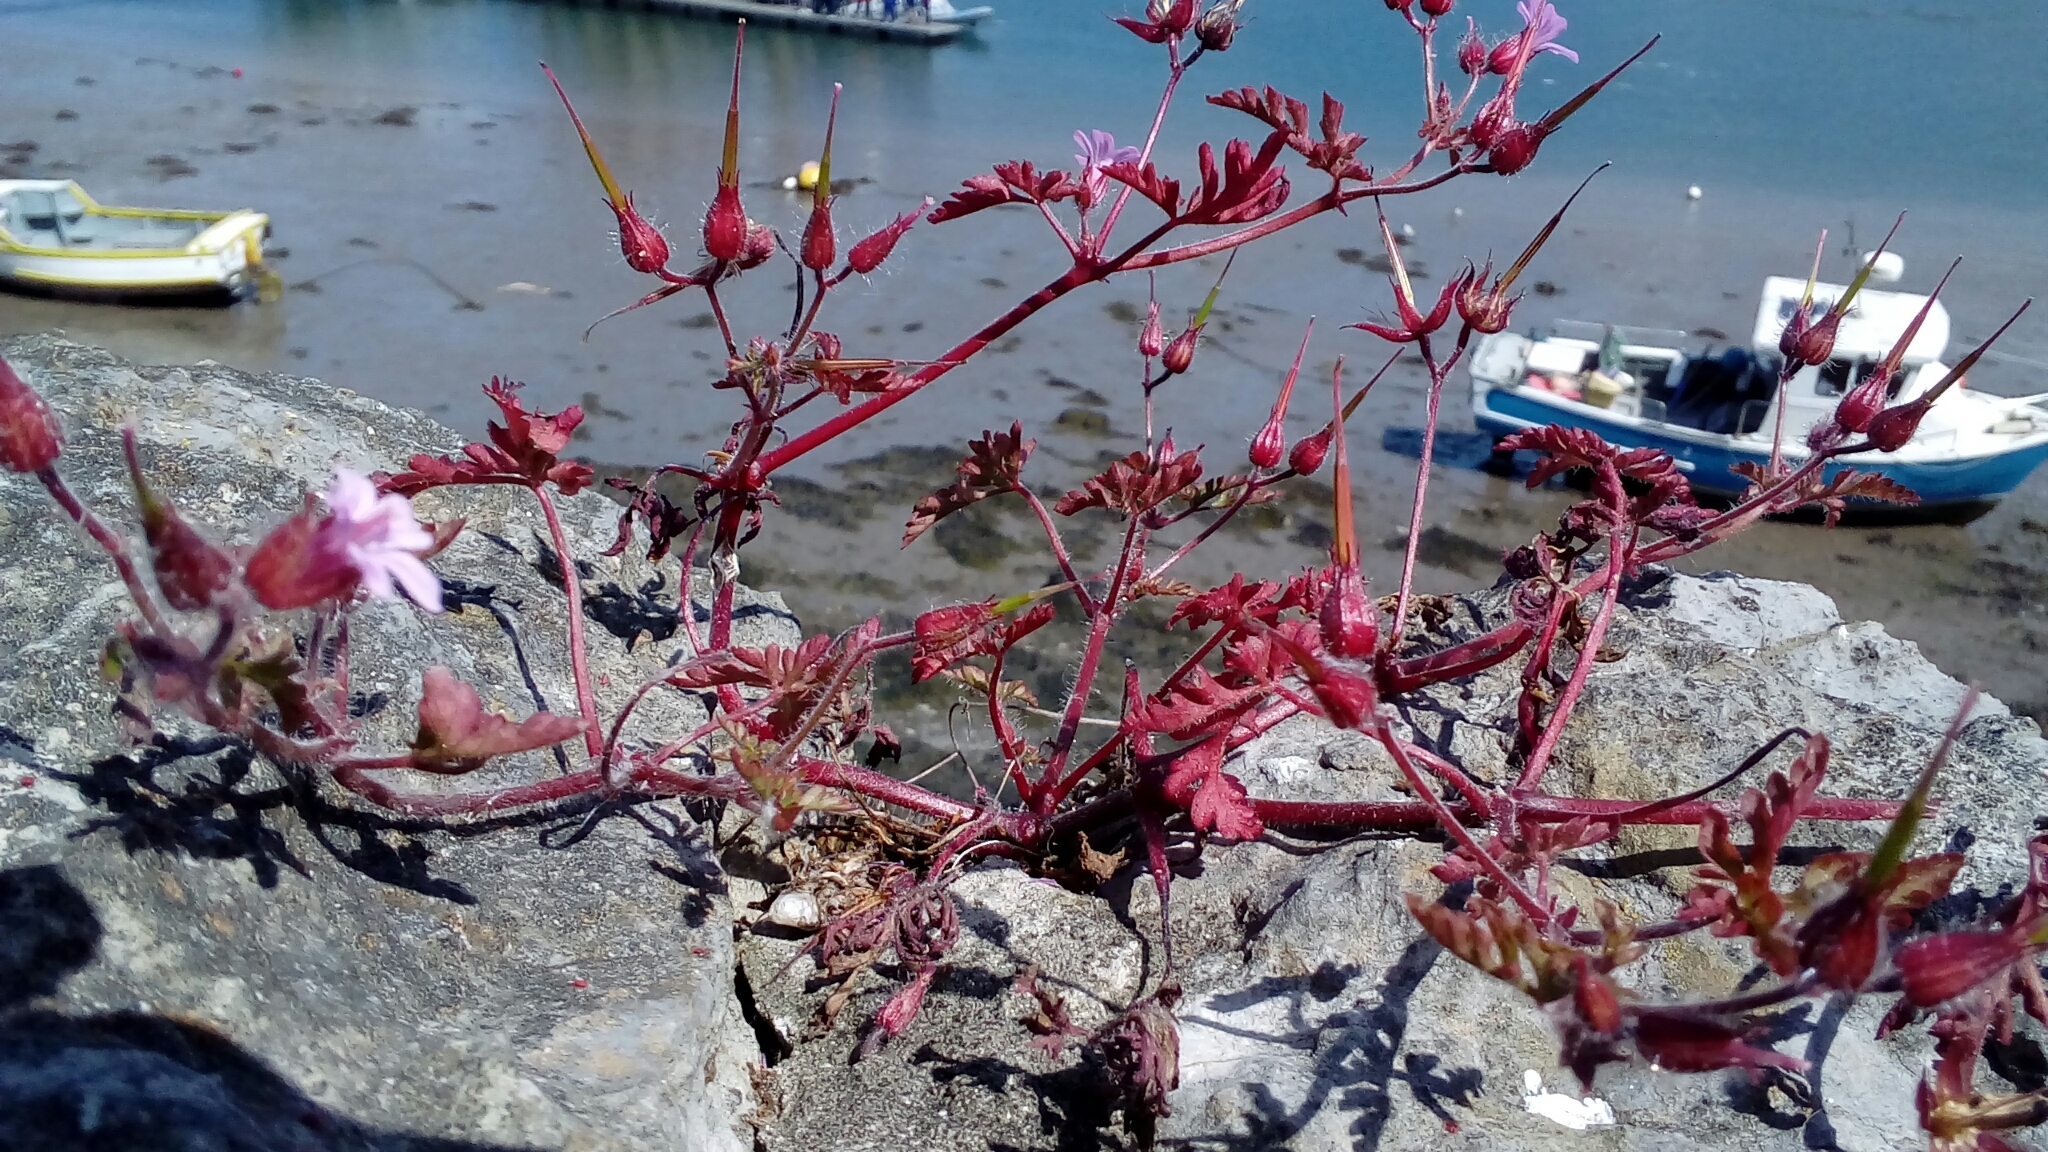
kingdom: Plantae
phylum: Tracheophyta
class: Magnoliopsida
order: Geraniales
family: Geraniaceae
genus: Geranium
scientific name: Geranium robertianum
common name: Herb-robert
